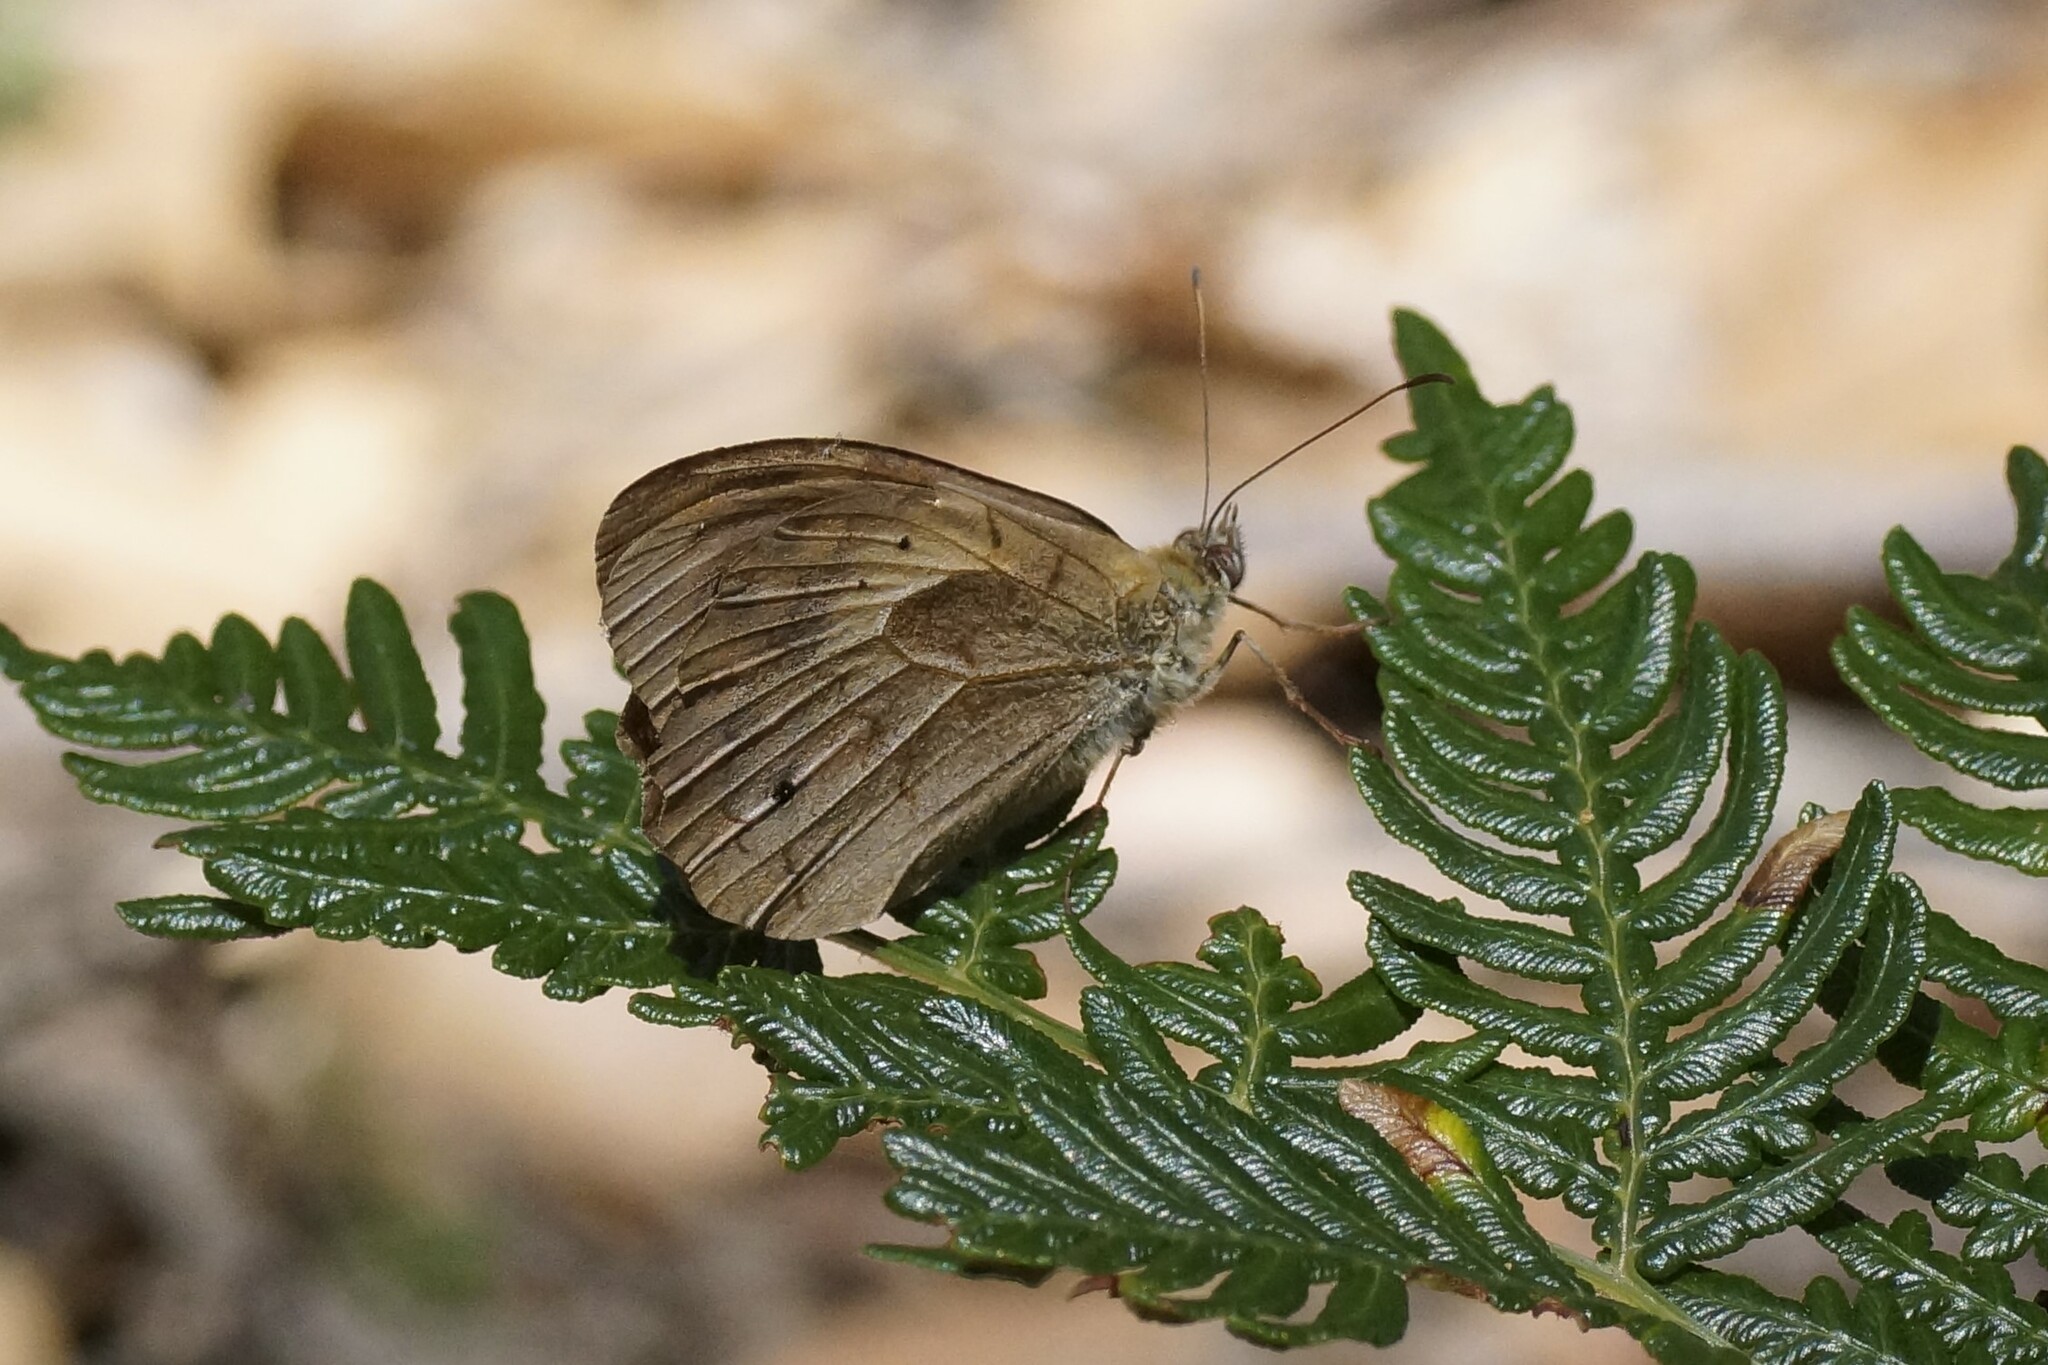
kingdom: Animalia
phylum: Arthropoda
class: Insecta
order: Lepidoptera
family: Nymphalidae
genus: Heteronympha
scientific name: Heteronympha merope
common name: Common brown
